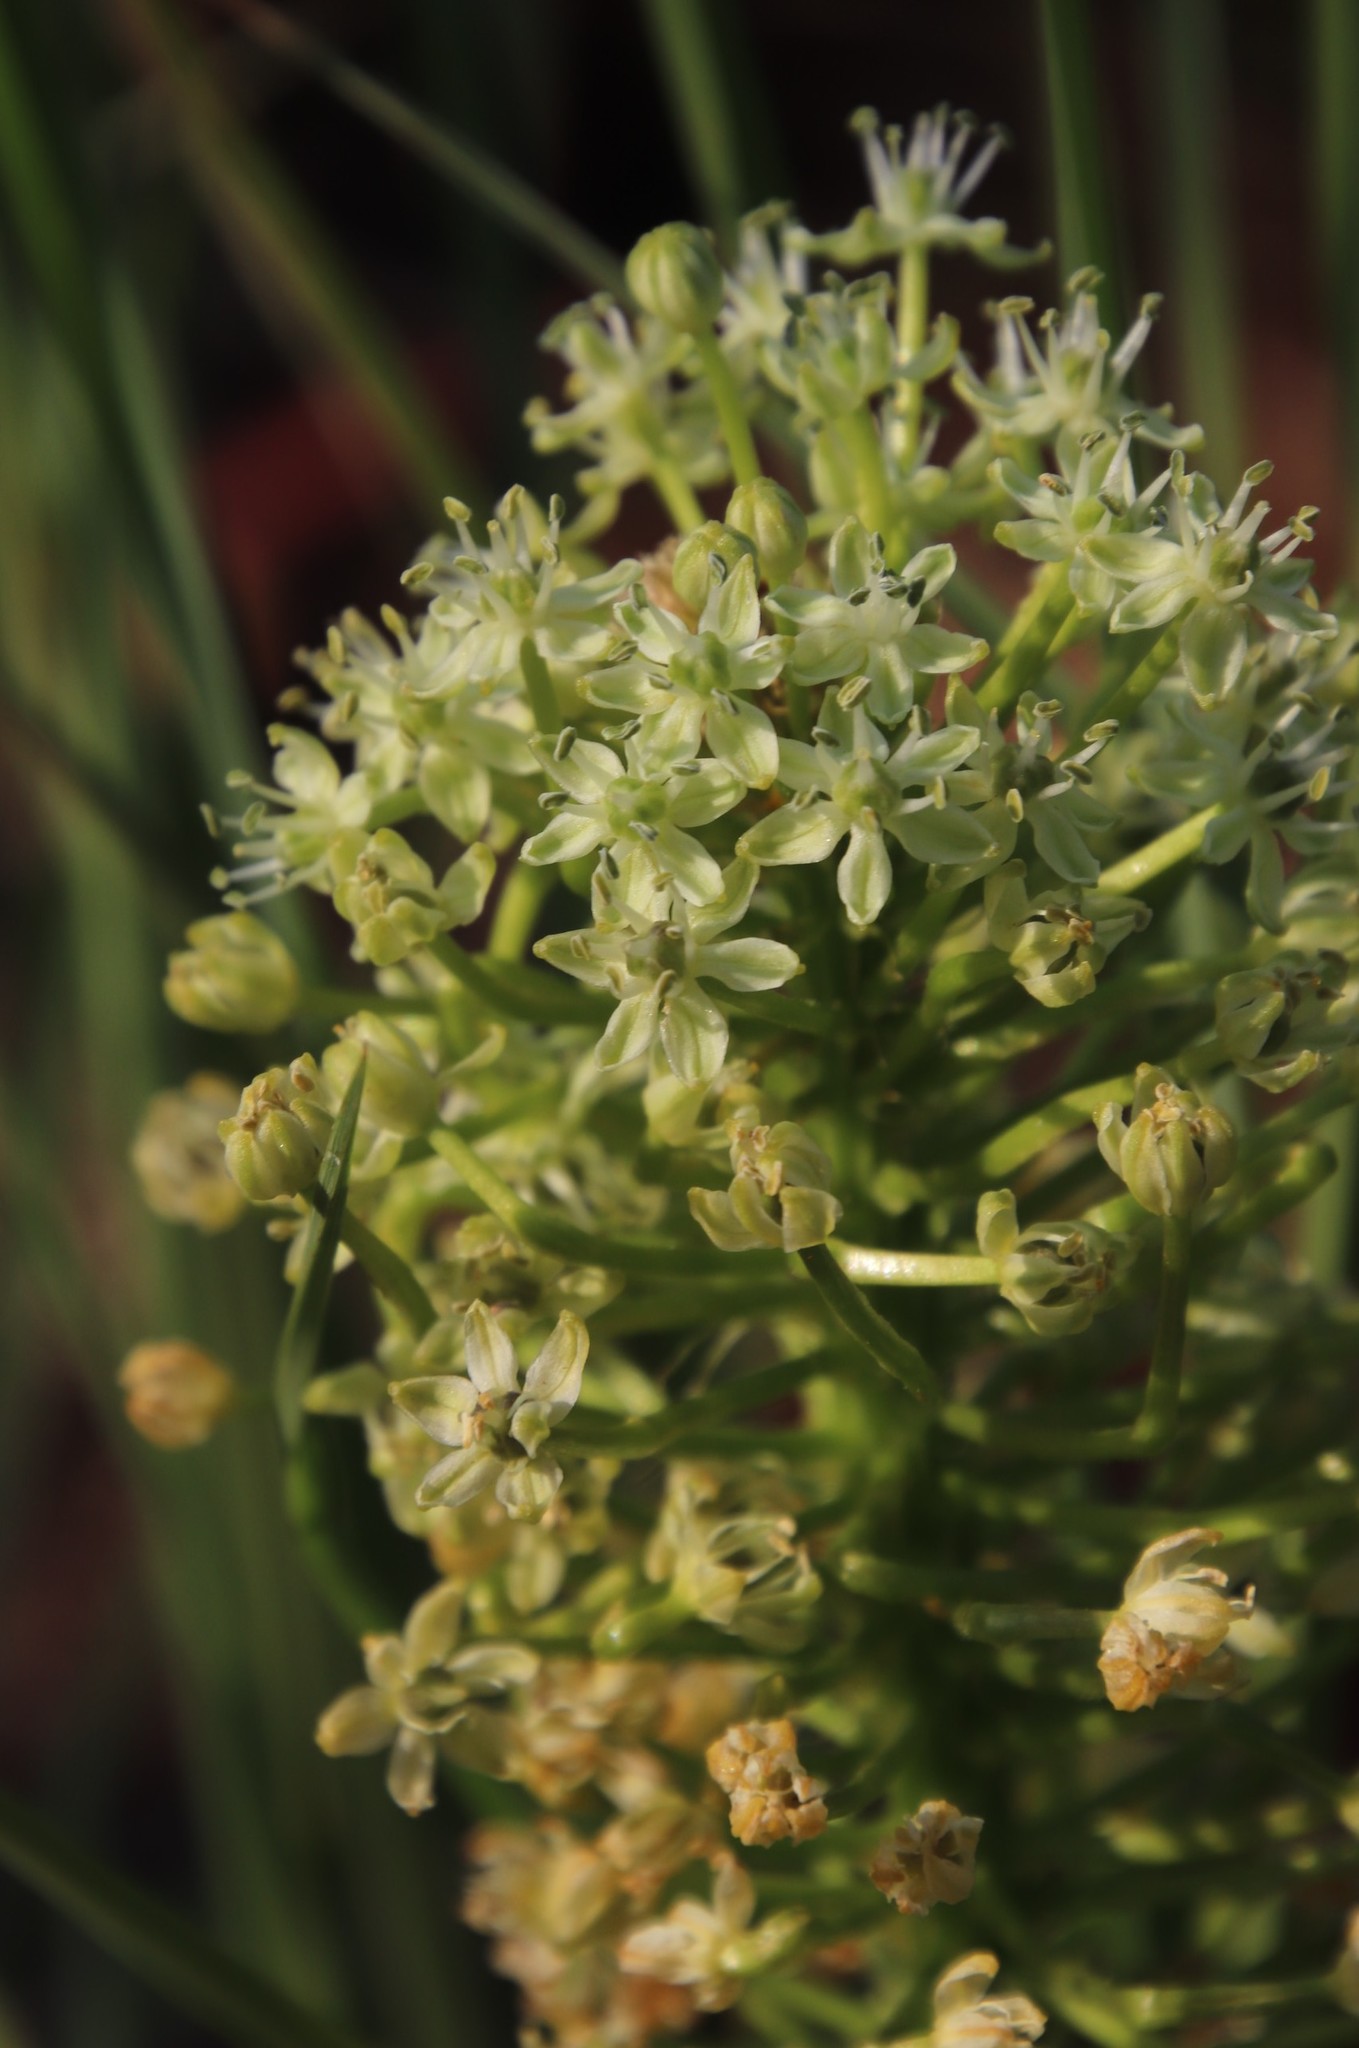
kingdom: Plantae
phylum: Tracheophyta
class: Liliopsida
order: Asparagales
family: Asparagaceae
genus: Schizocarphus
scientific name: Schizocarphus nervosus
